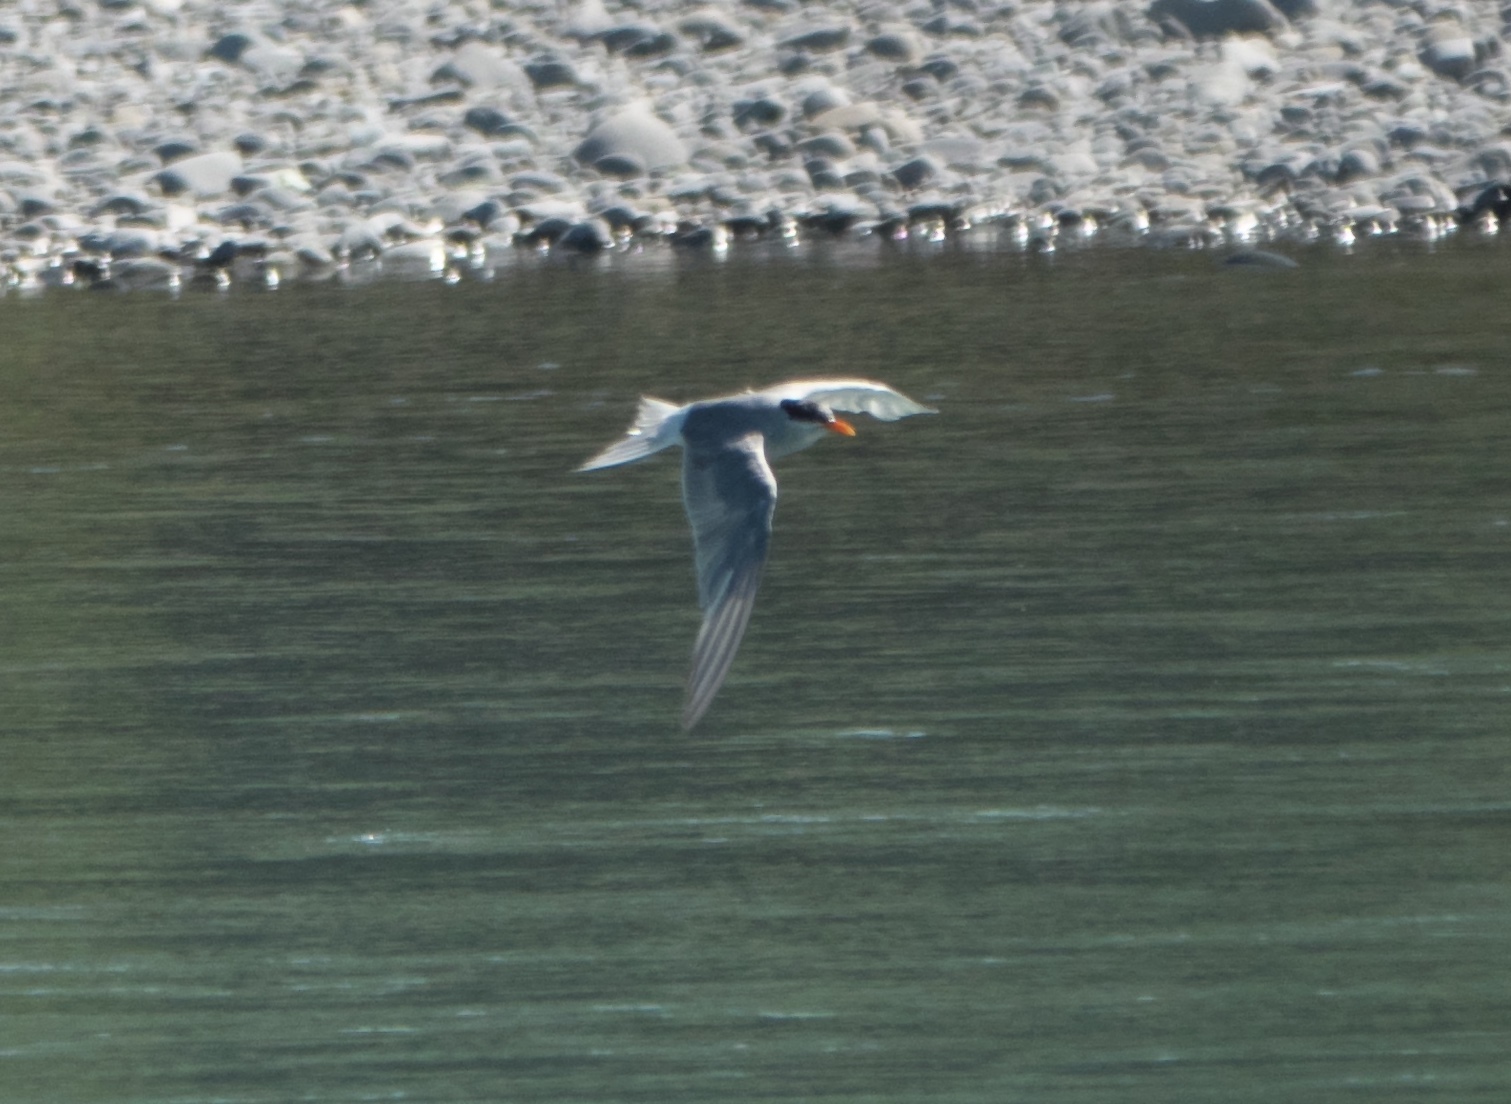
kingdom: Animalia
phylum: Chordata
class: Aves
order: Charadriiformes
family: Laridae
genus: Chlidonias
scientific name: Chlidonias albostriatus
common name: Black-fronted tern
